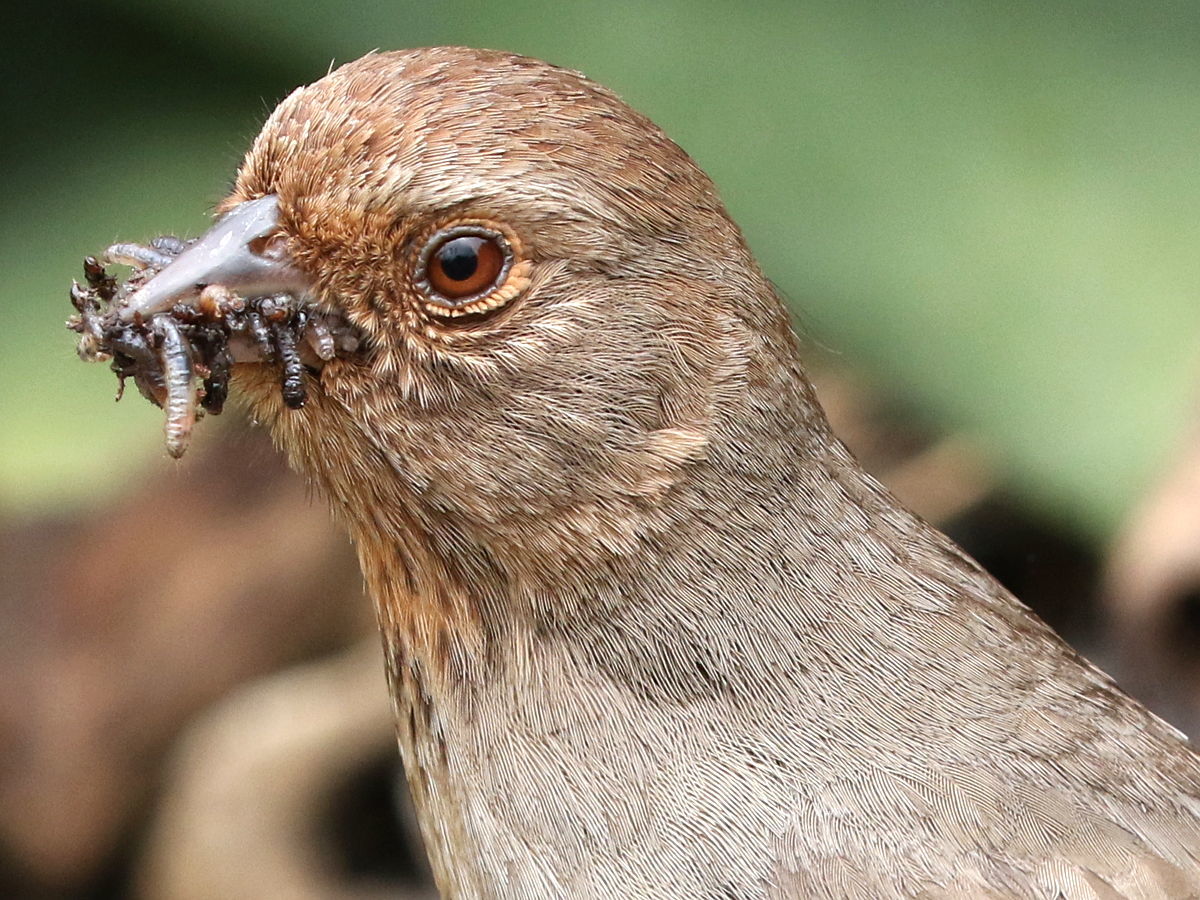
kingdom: Animalia
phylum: Chordata
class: Aves
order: Passeriformes
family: Passerellidae
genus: Melozone
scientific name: Melozone crissalis
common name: California towhee
